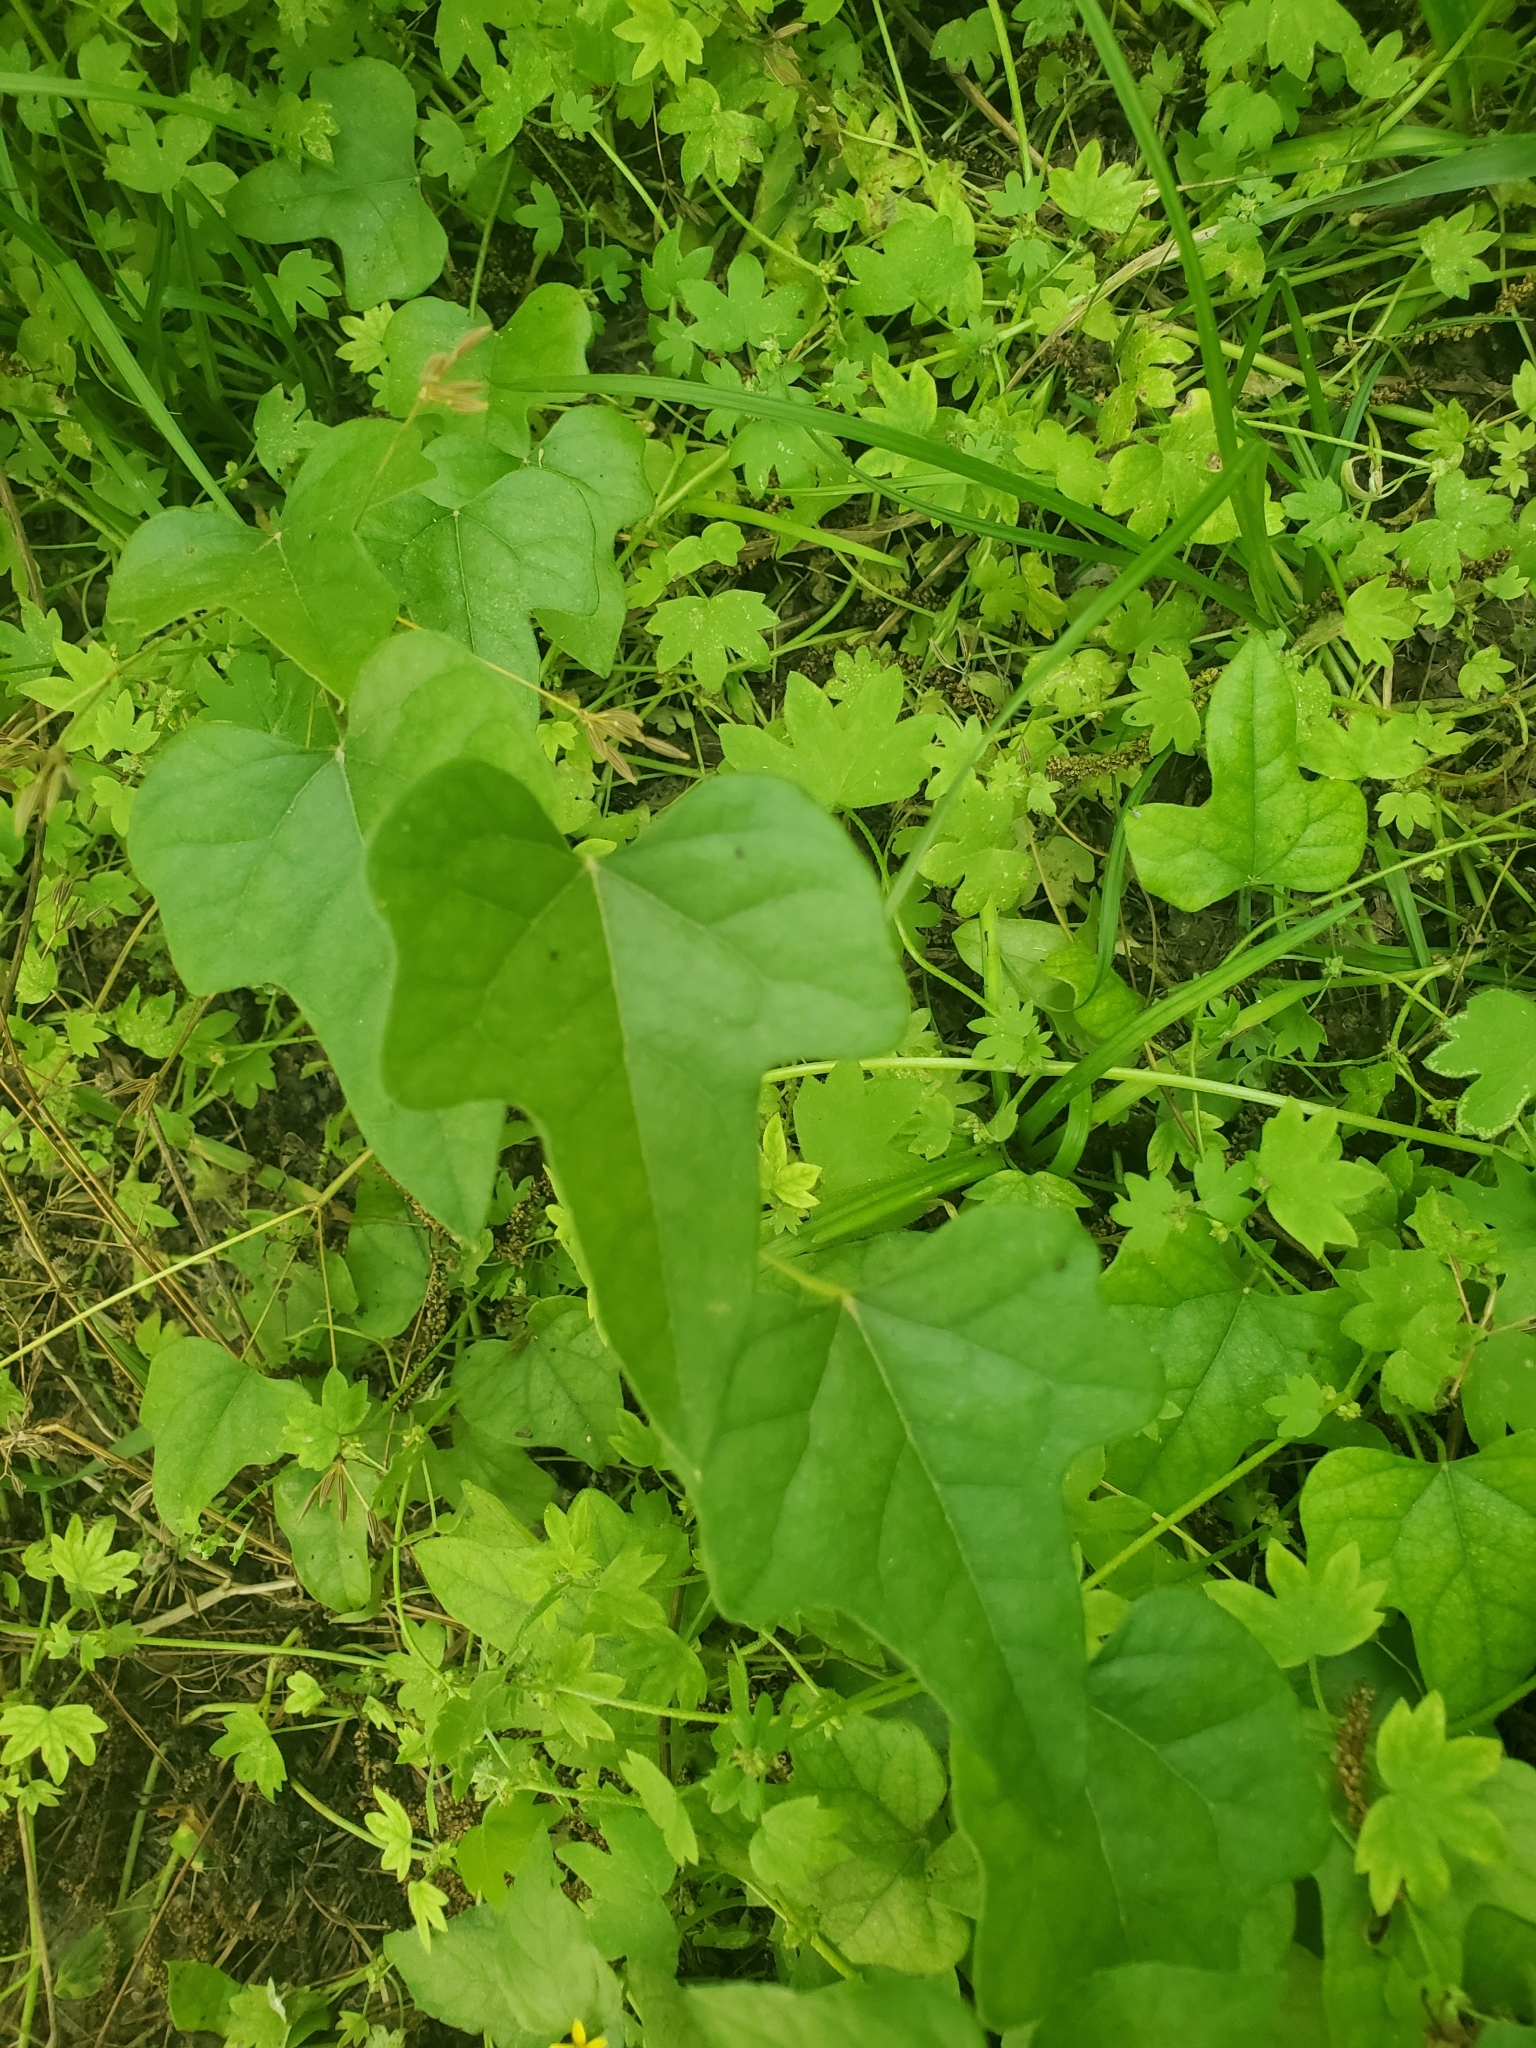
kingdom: Plantae
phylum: Tracheophyta
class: Magnoliopsida
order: Ranunculales
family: Menispermaceae
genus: Cocculus
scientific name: Cocculus carolinus
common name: Carolina moonseed
